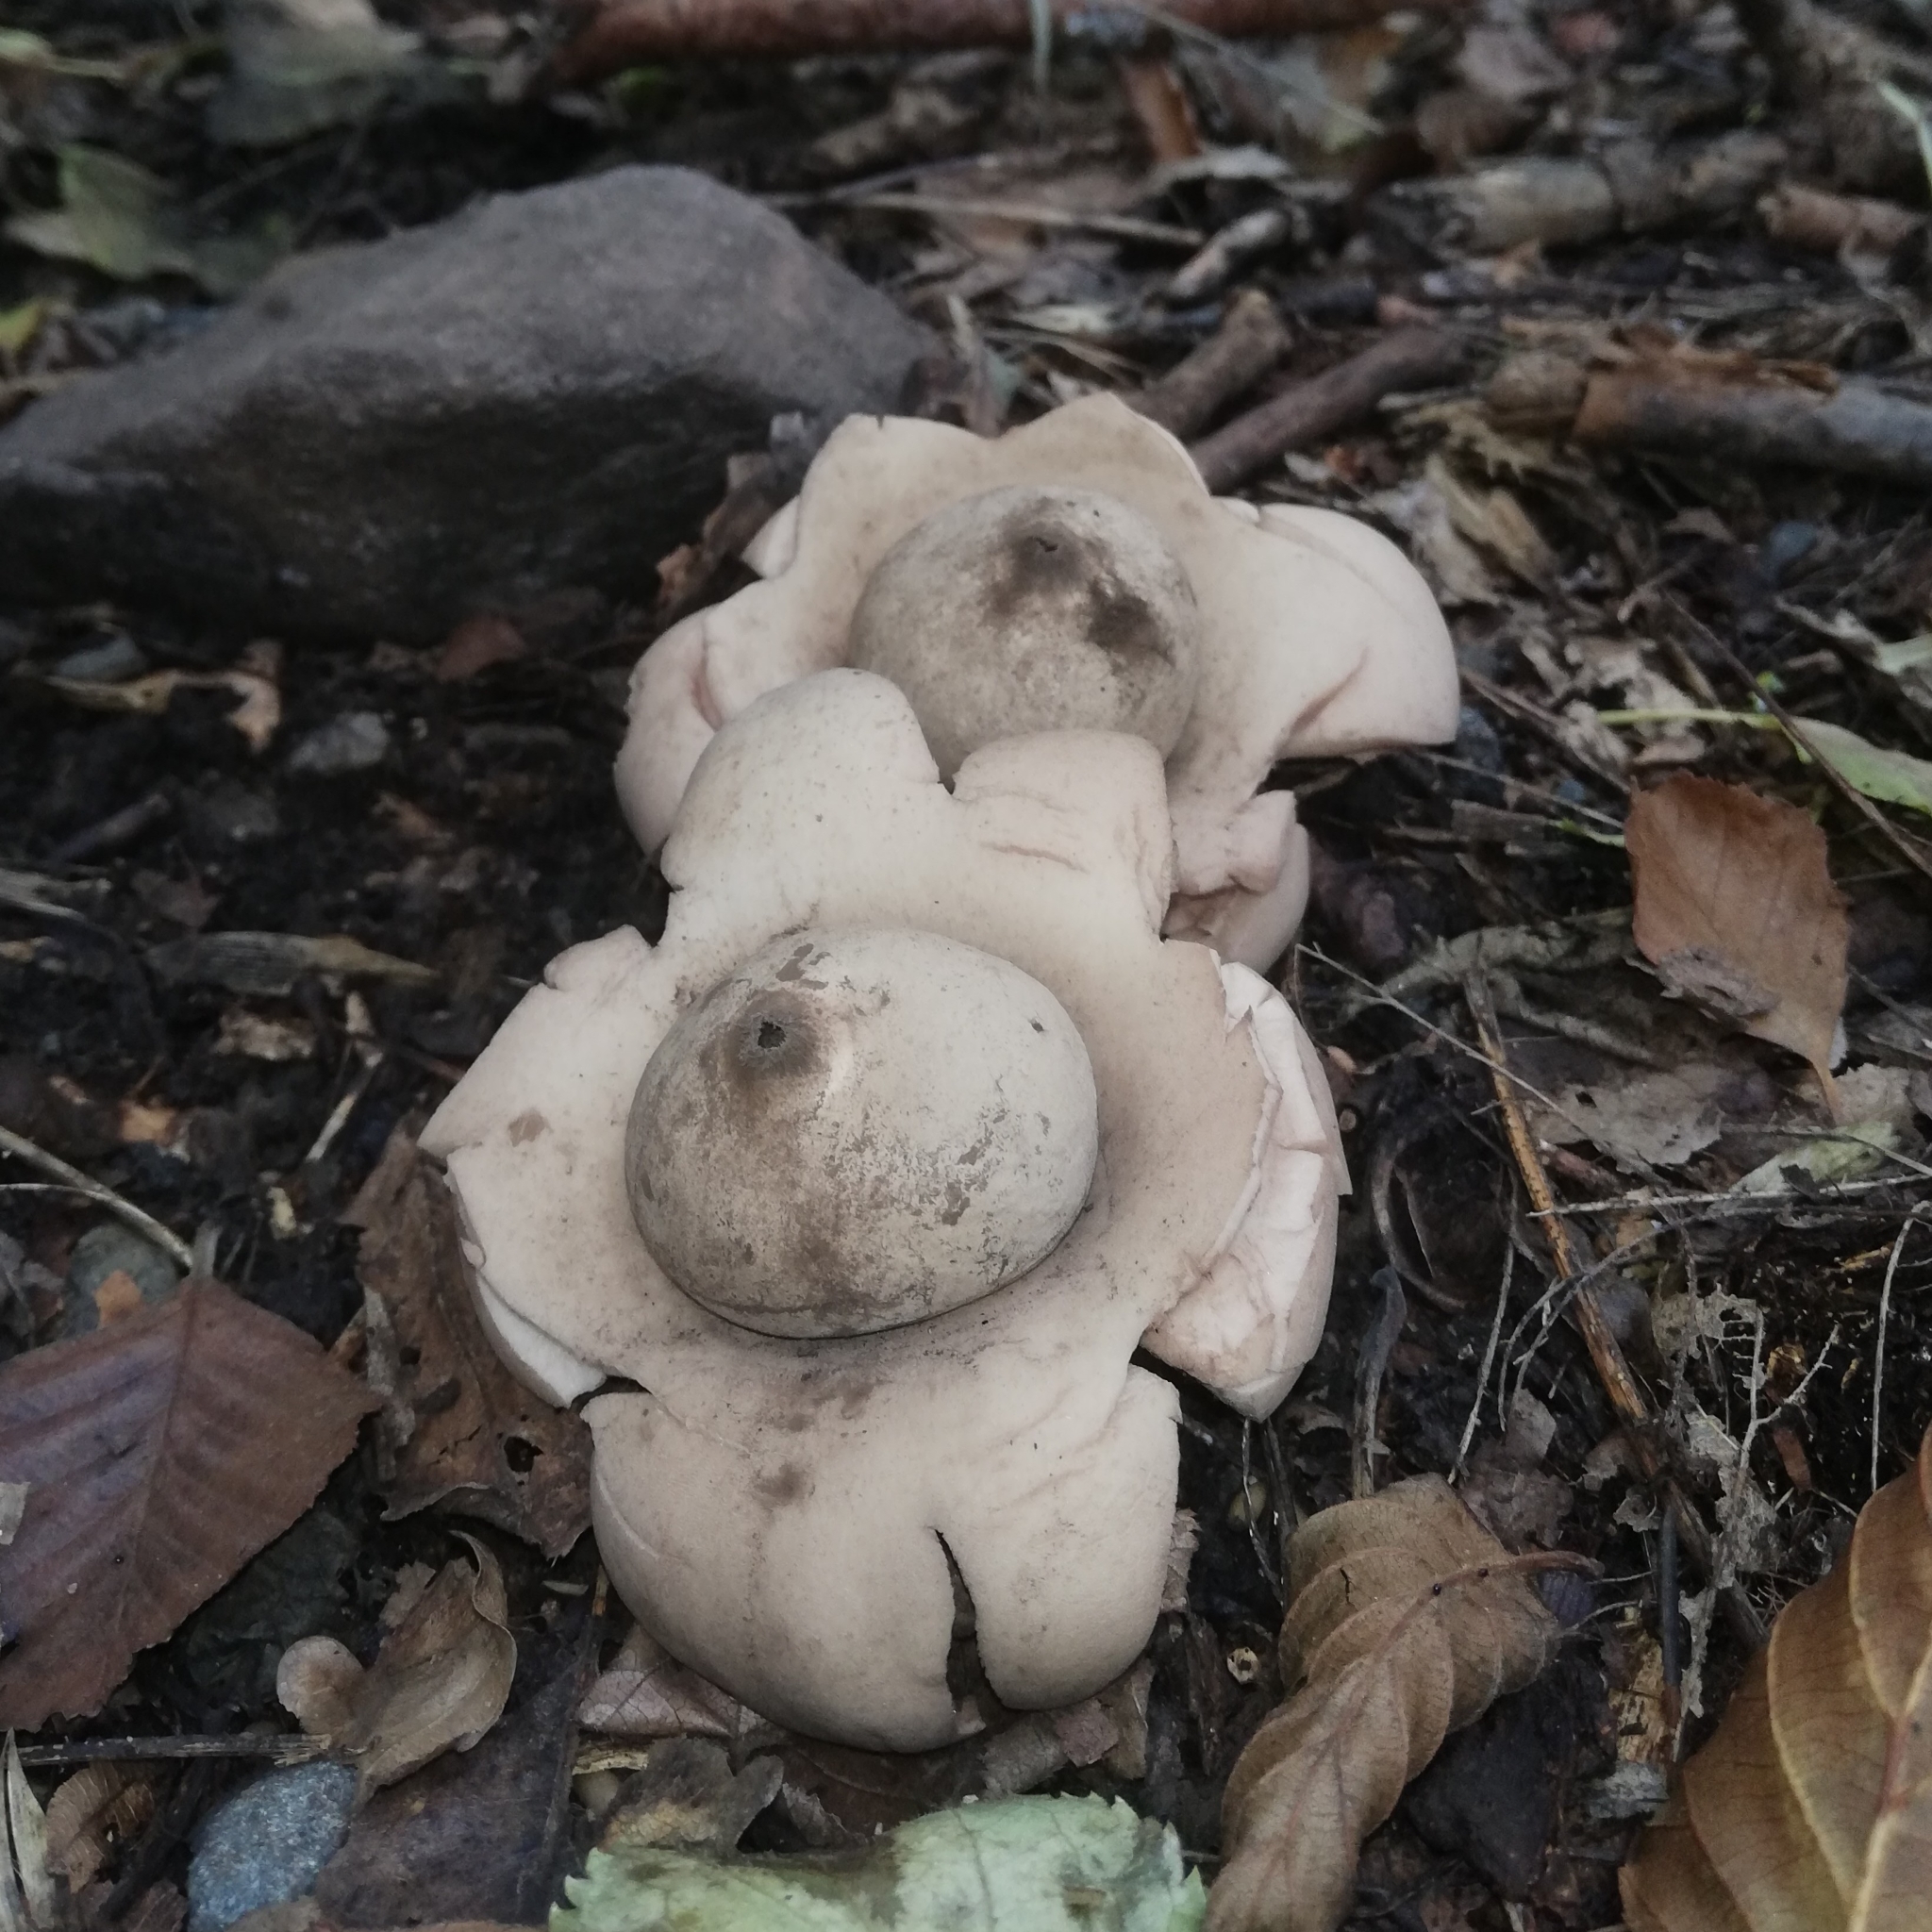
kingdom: Fungi
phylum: Basidiomycota
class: Agaricomycetes
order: Geastrales
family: Geastraceae
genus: Geastrum
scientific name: Geastrum triplex
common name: Collared earthstar
